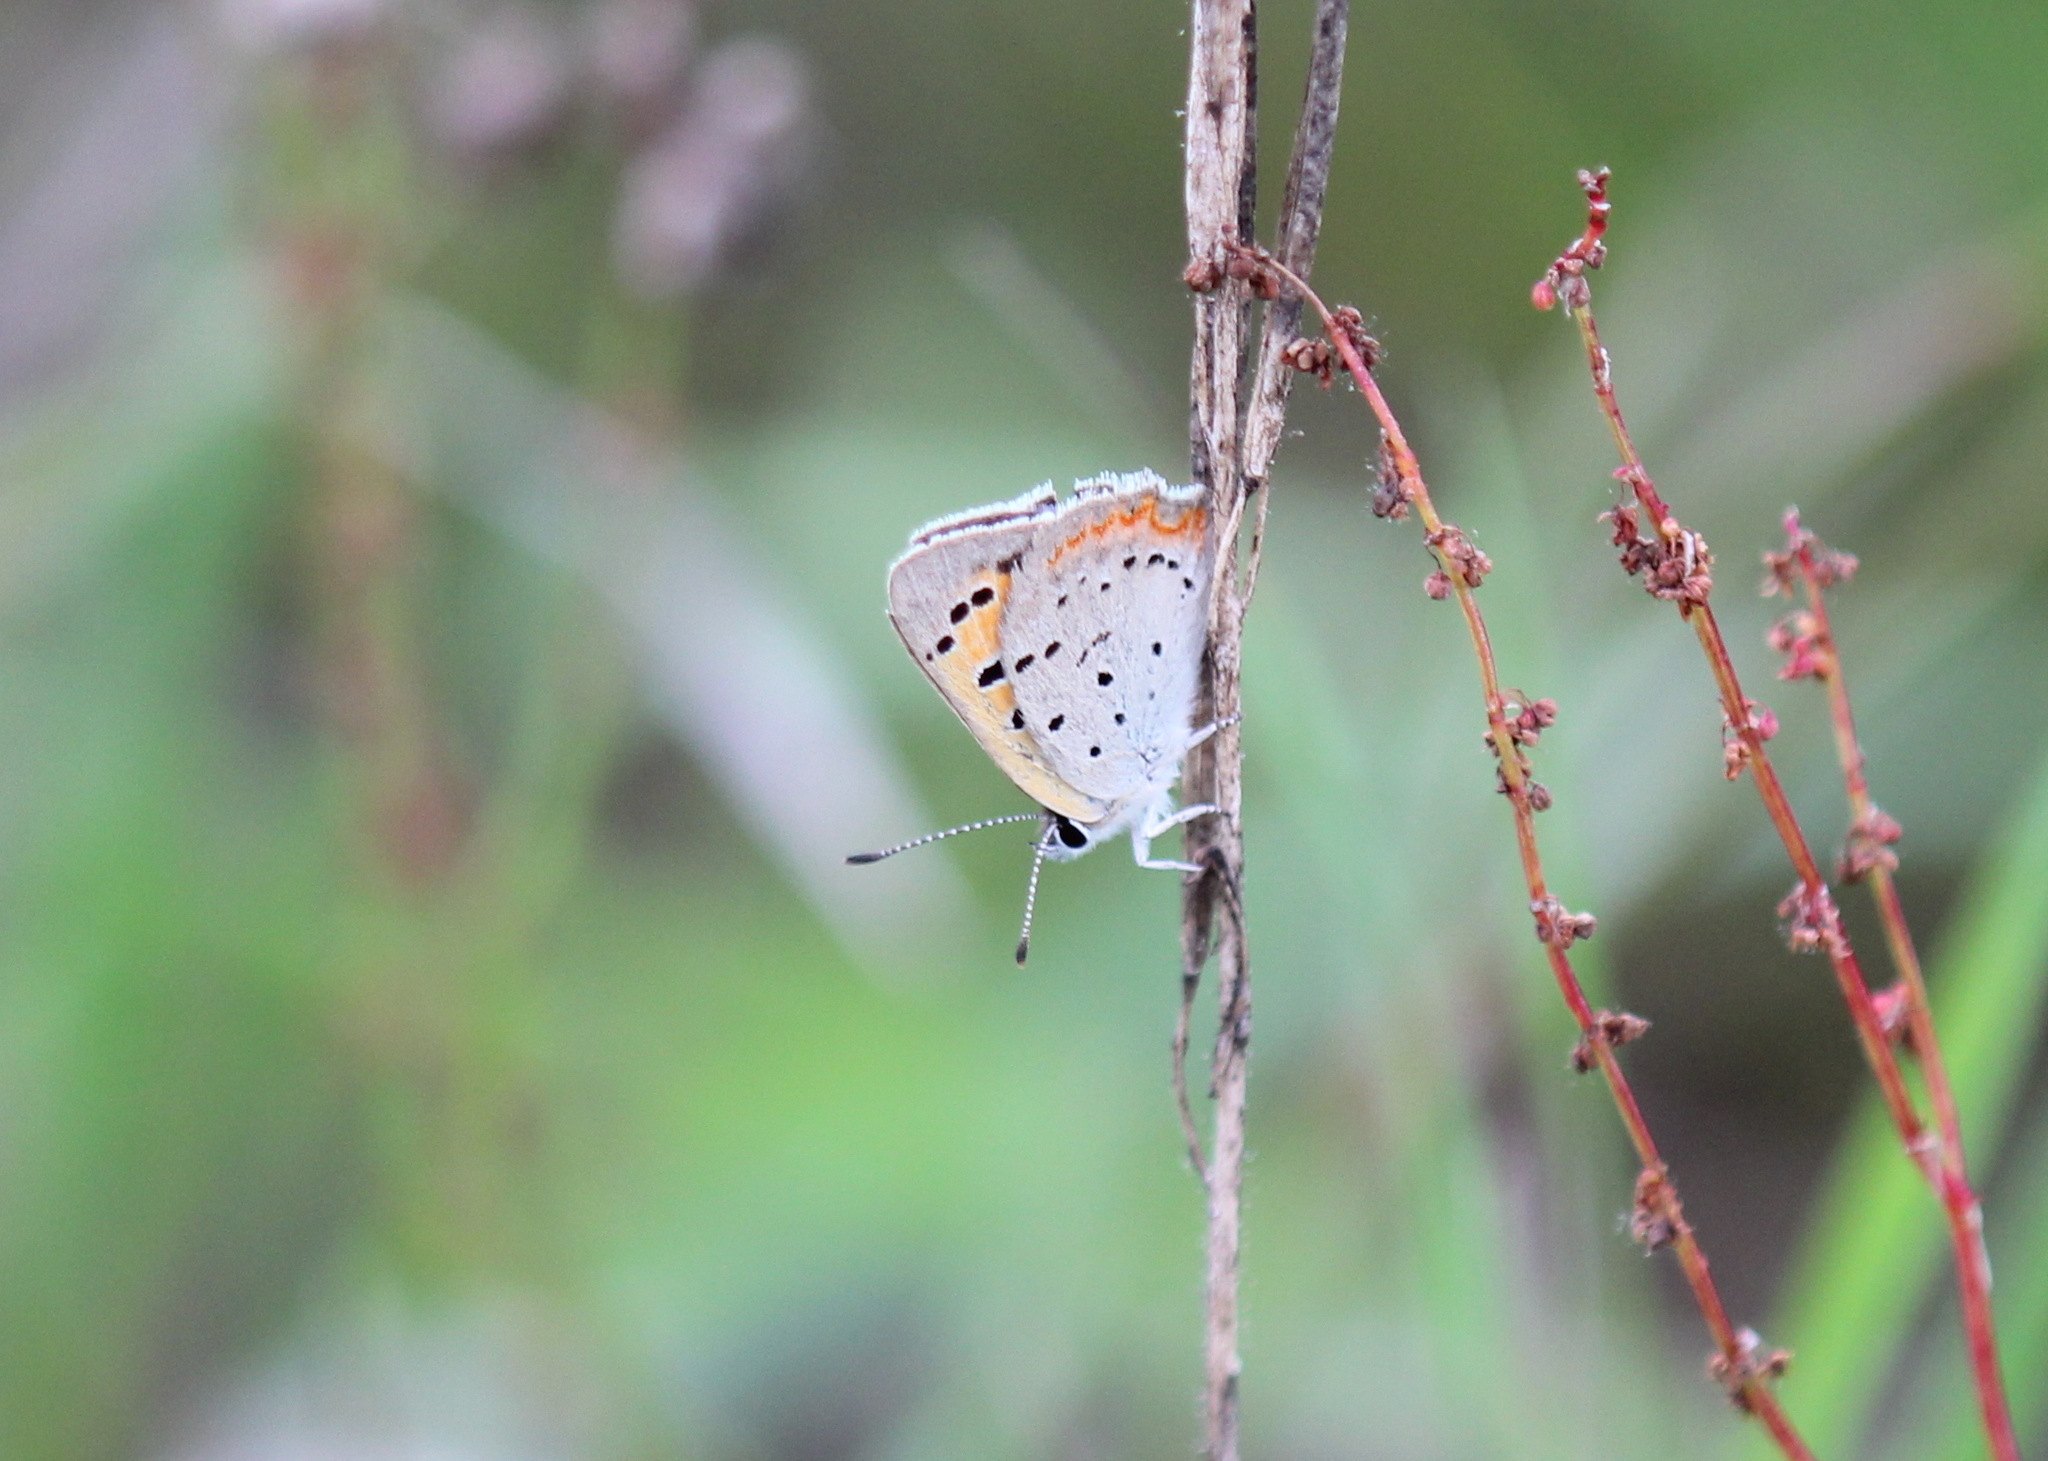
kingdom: Animalia
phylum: Arthropoda
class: Insecta
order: Lepidoptera
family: Lycaenidae
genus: Lycaena
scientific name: Lycaena hypophlaeas
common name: American copper
